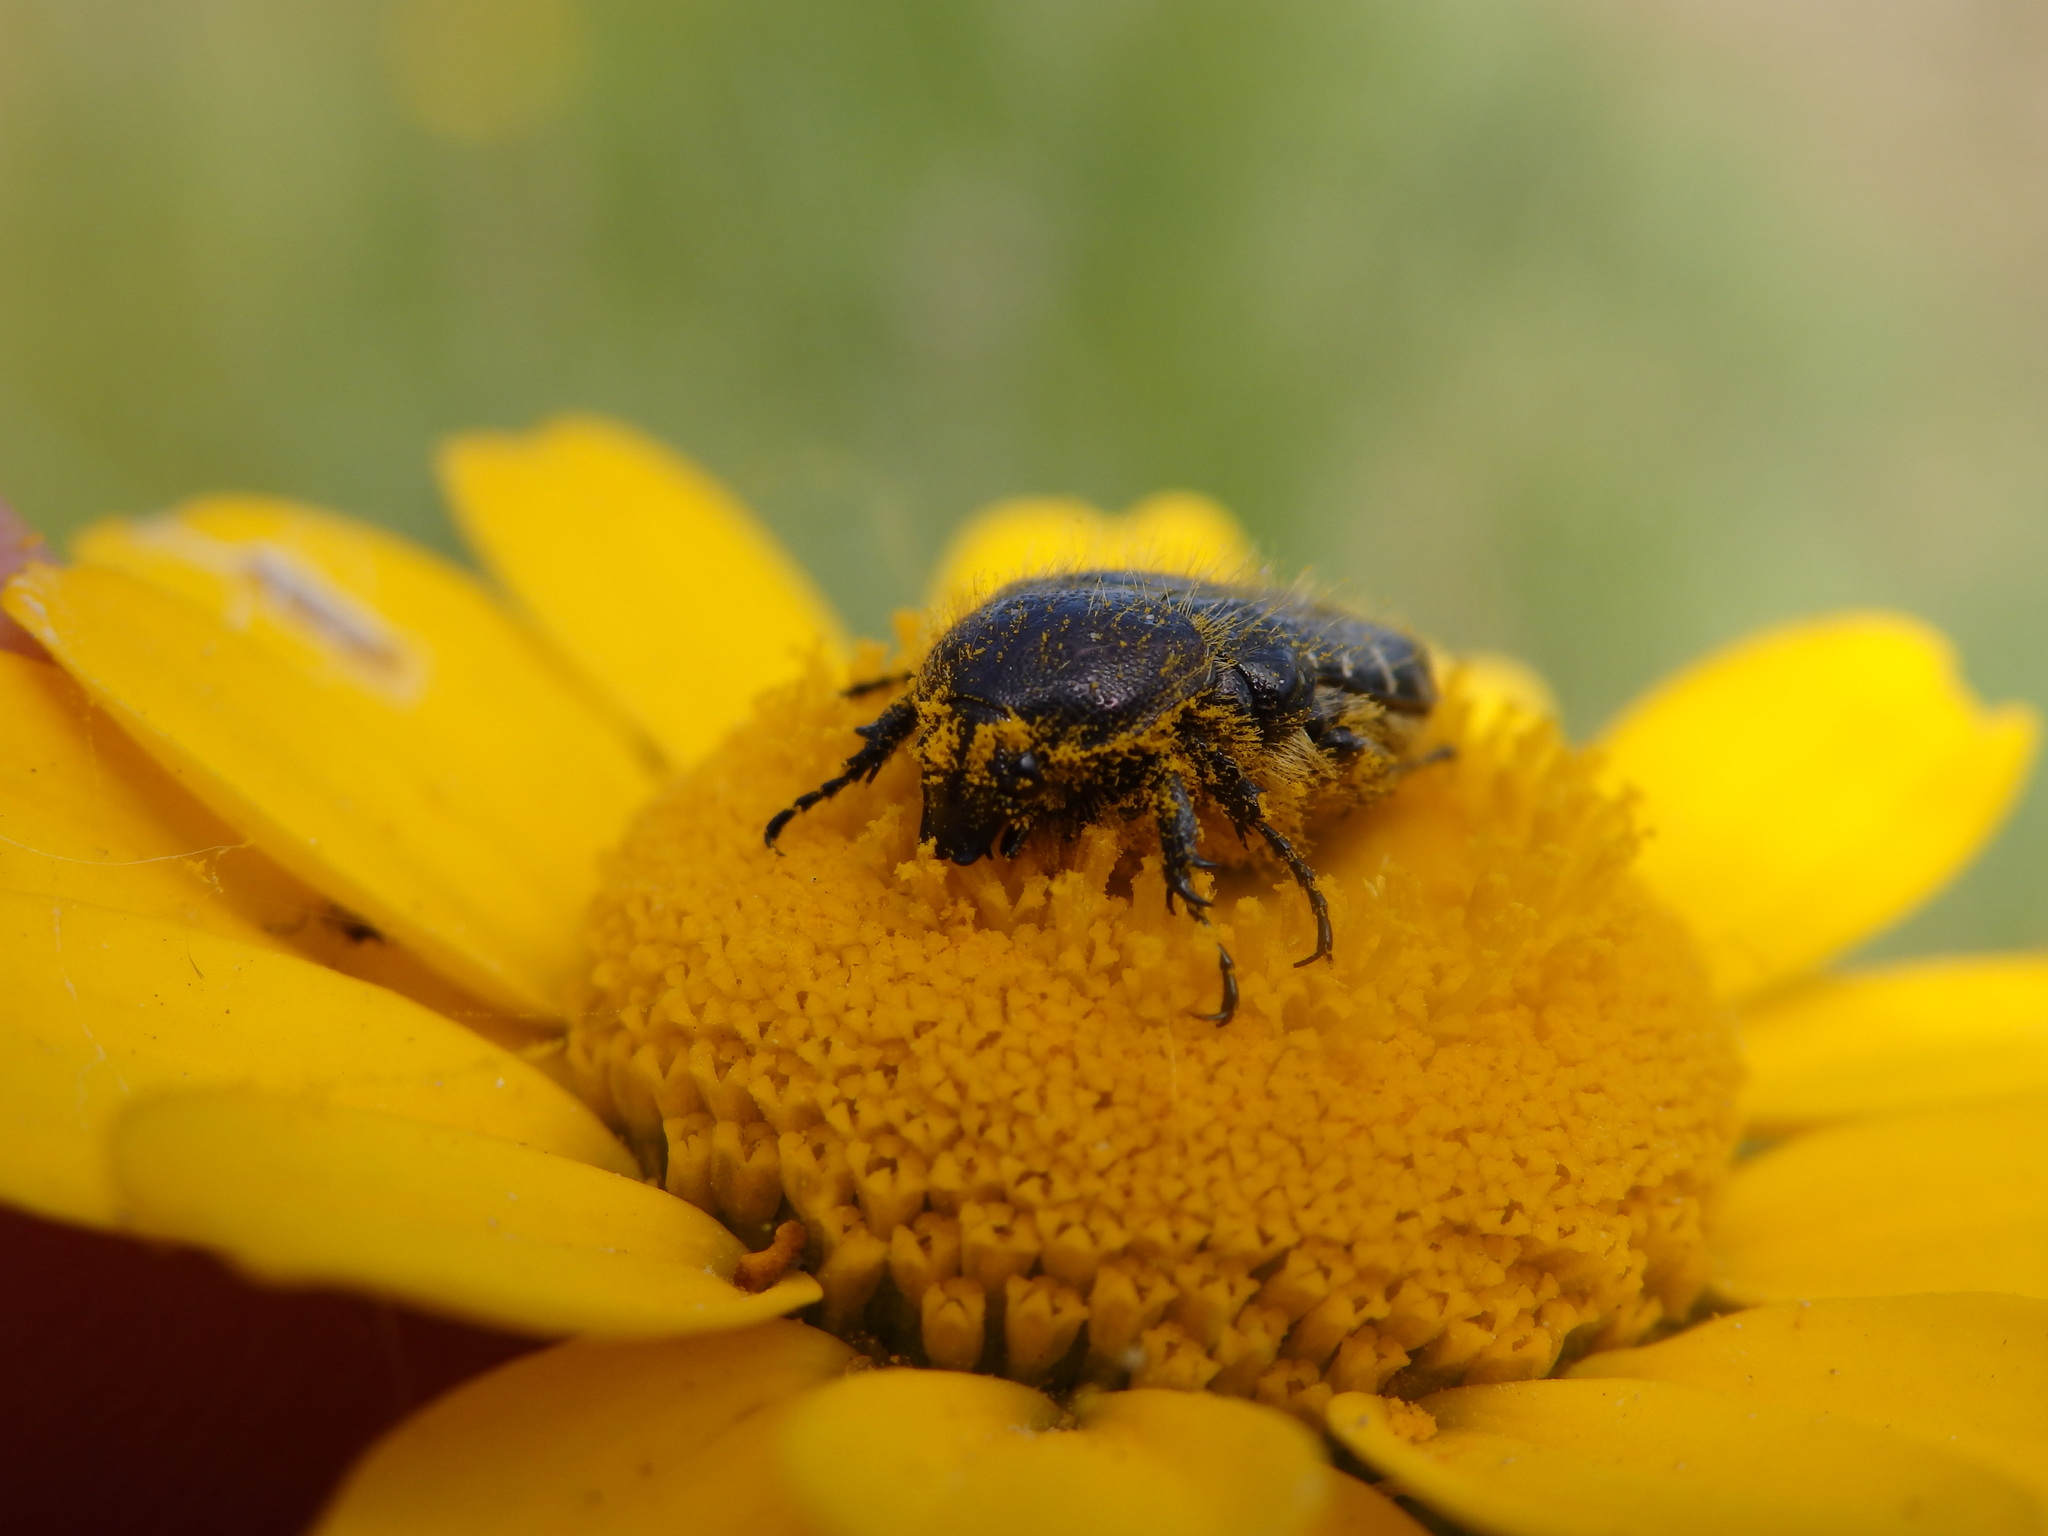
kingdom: Animalia
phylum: Arthropoda
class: Insecta
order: Coleoptera
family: Scarabaeidae
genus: Oxythyrea
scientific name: Oxythyrea funesta
